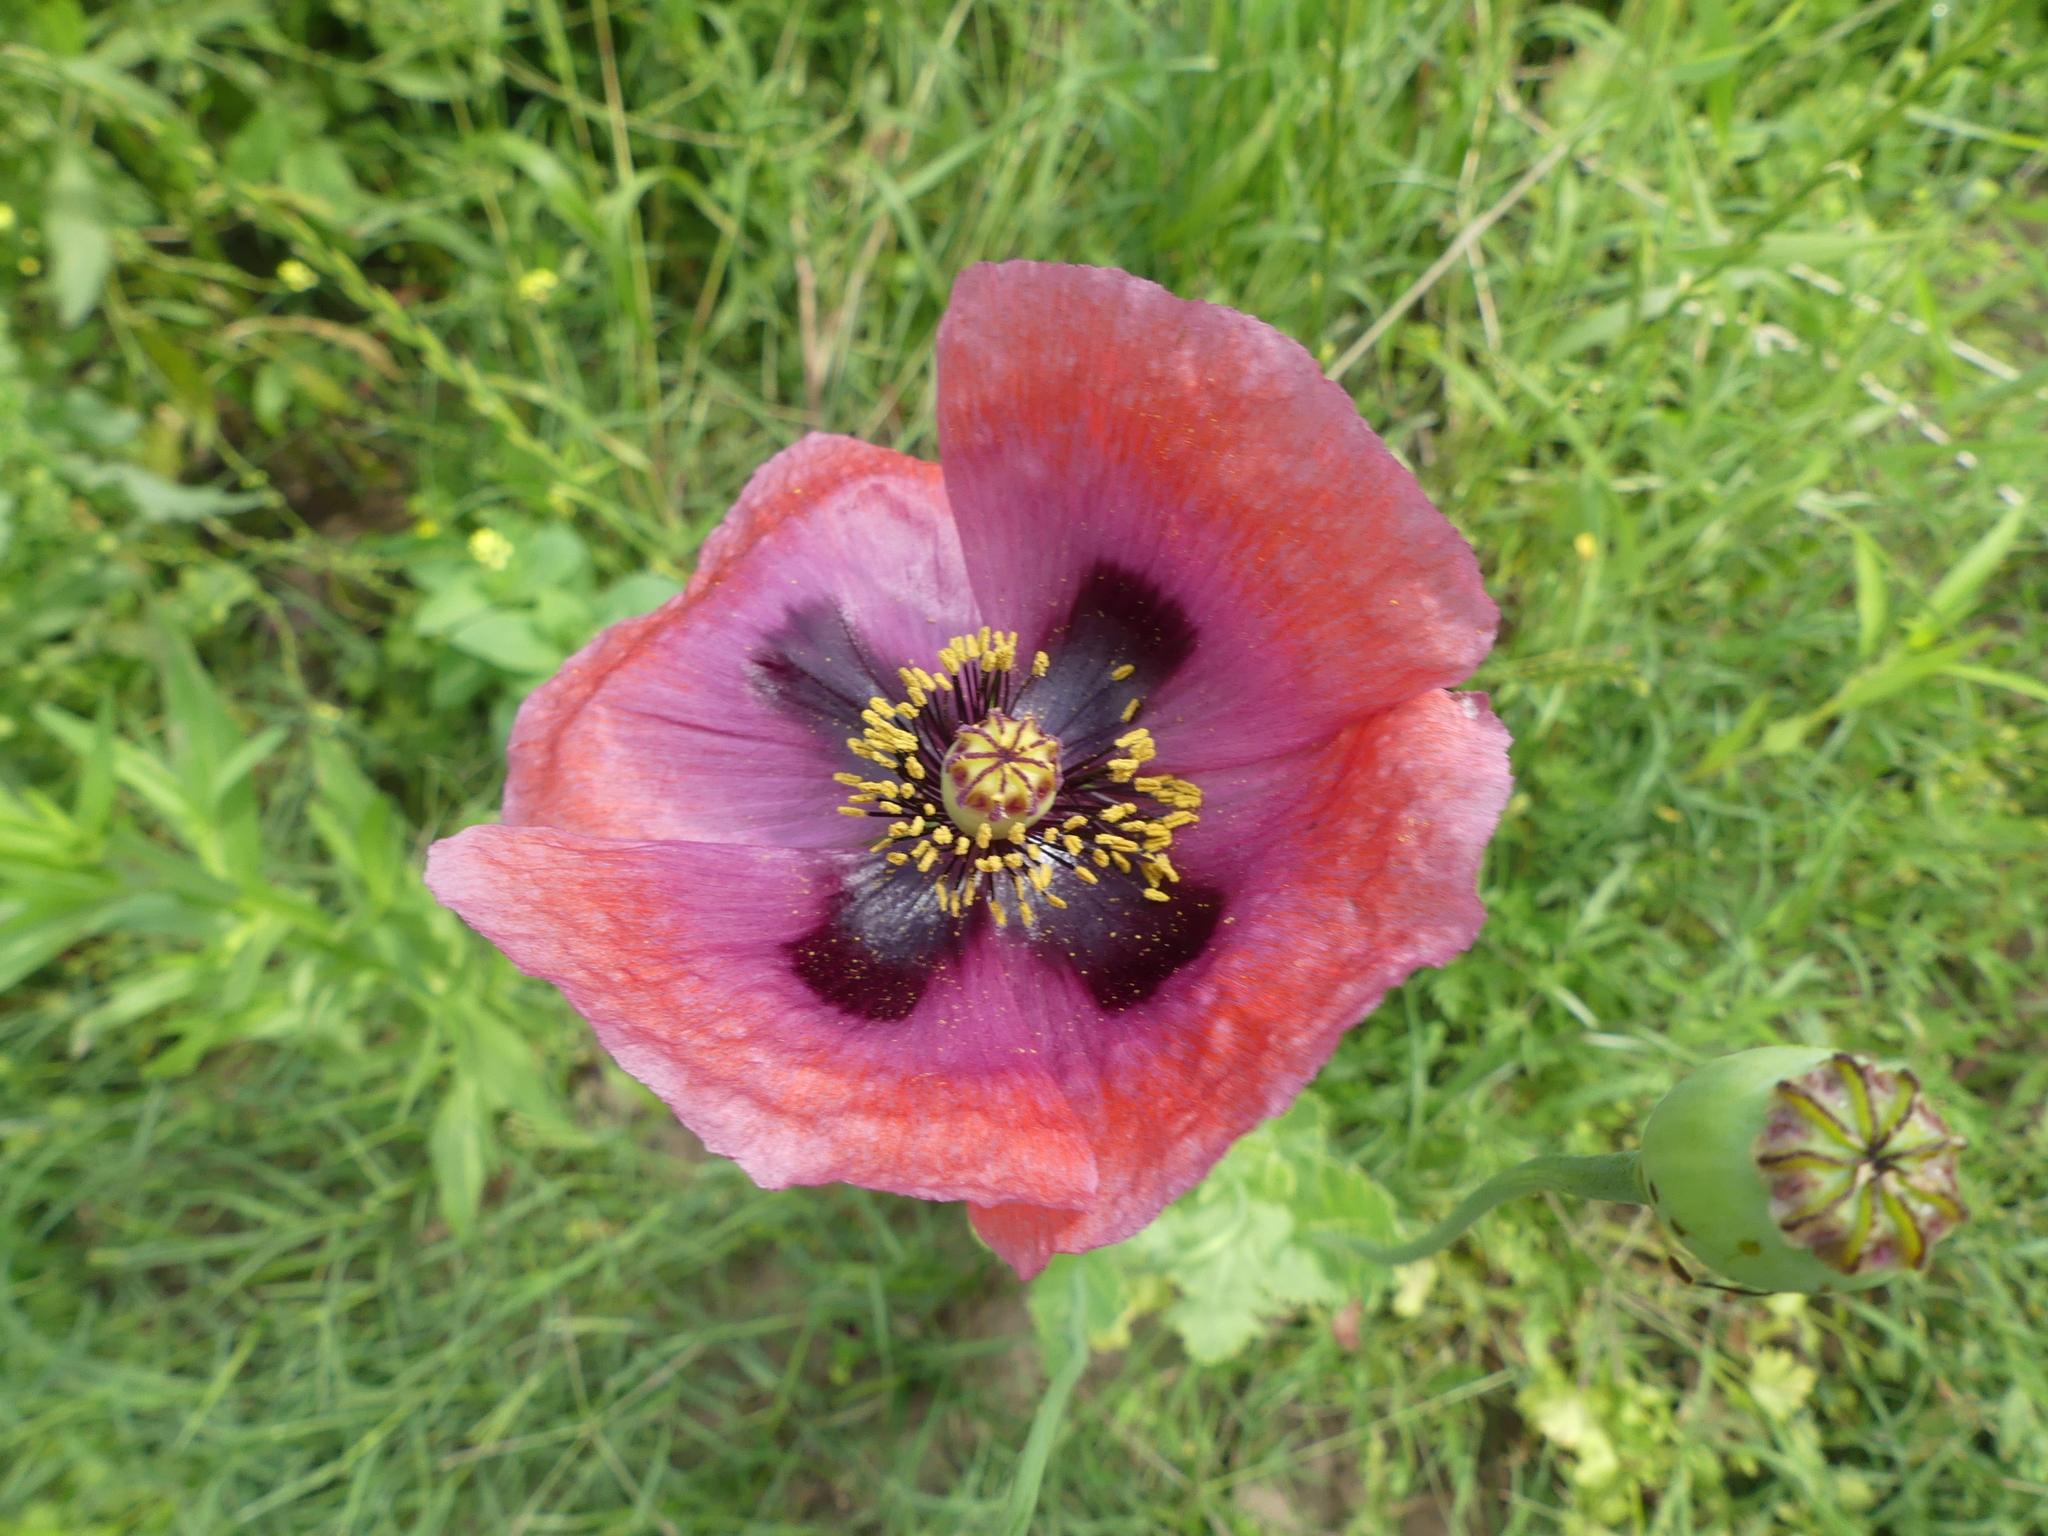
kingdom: Plantae
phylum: Tracheophyta
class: Magnoliopsida
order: Ranunculales
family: Papaveraceae
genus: Papaver
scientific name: Papaver somniferum
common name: Opium poppy
